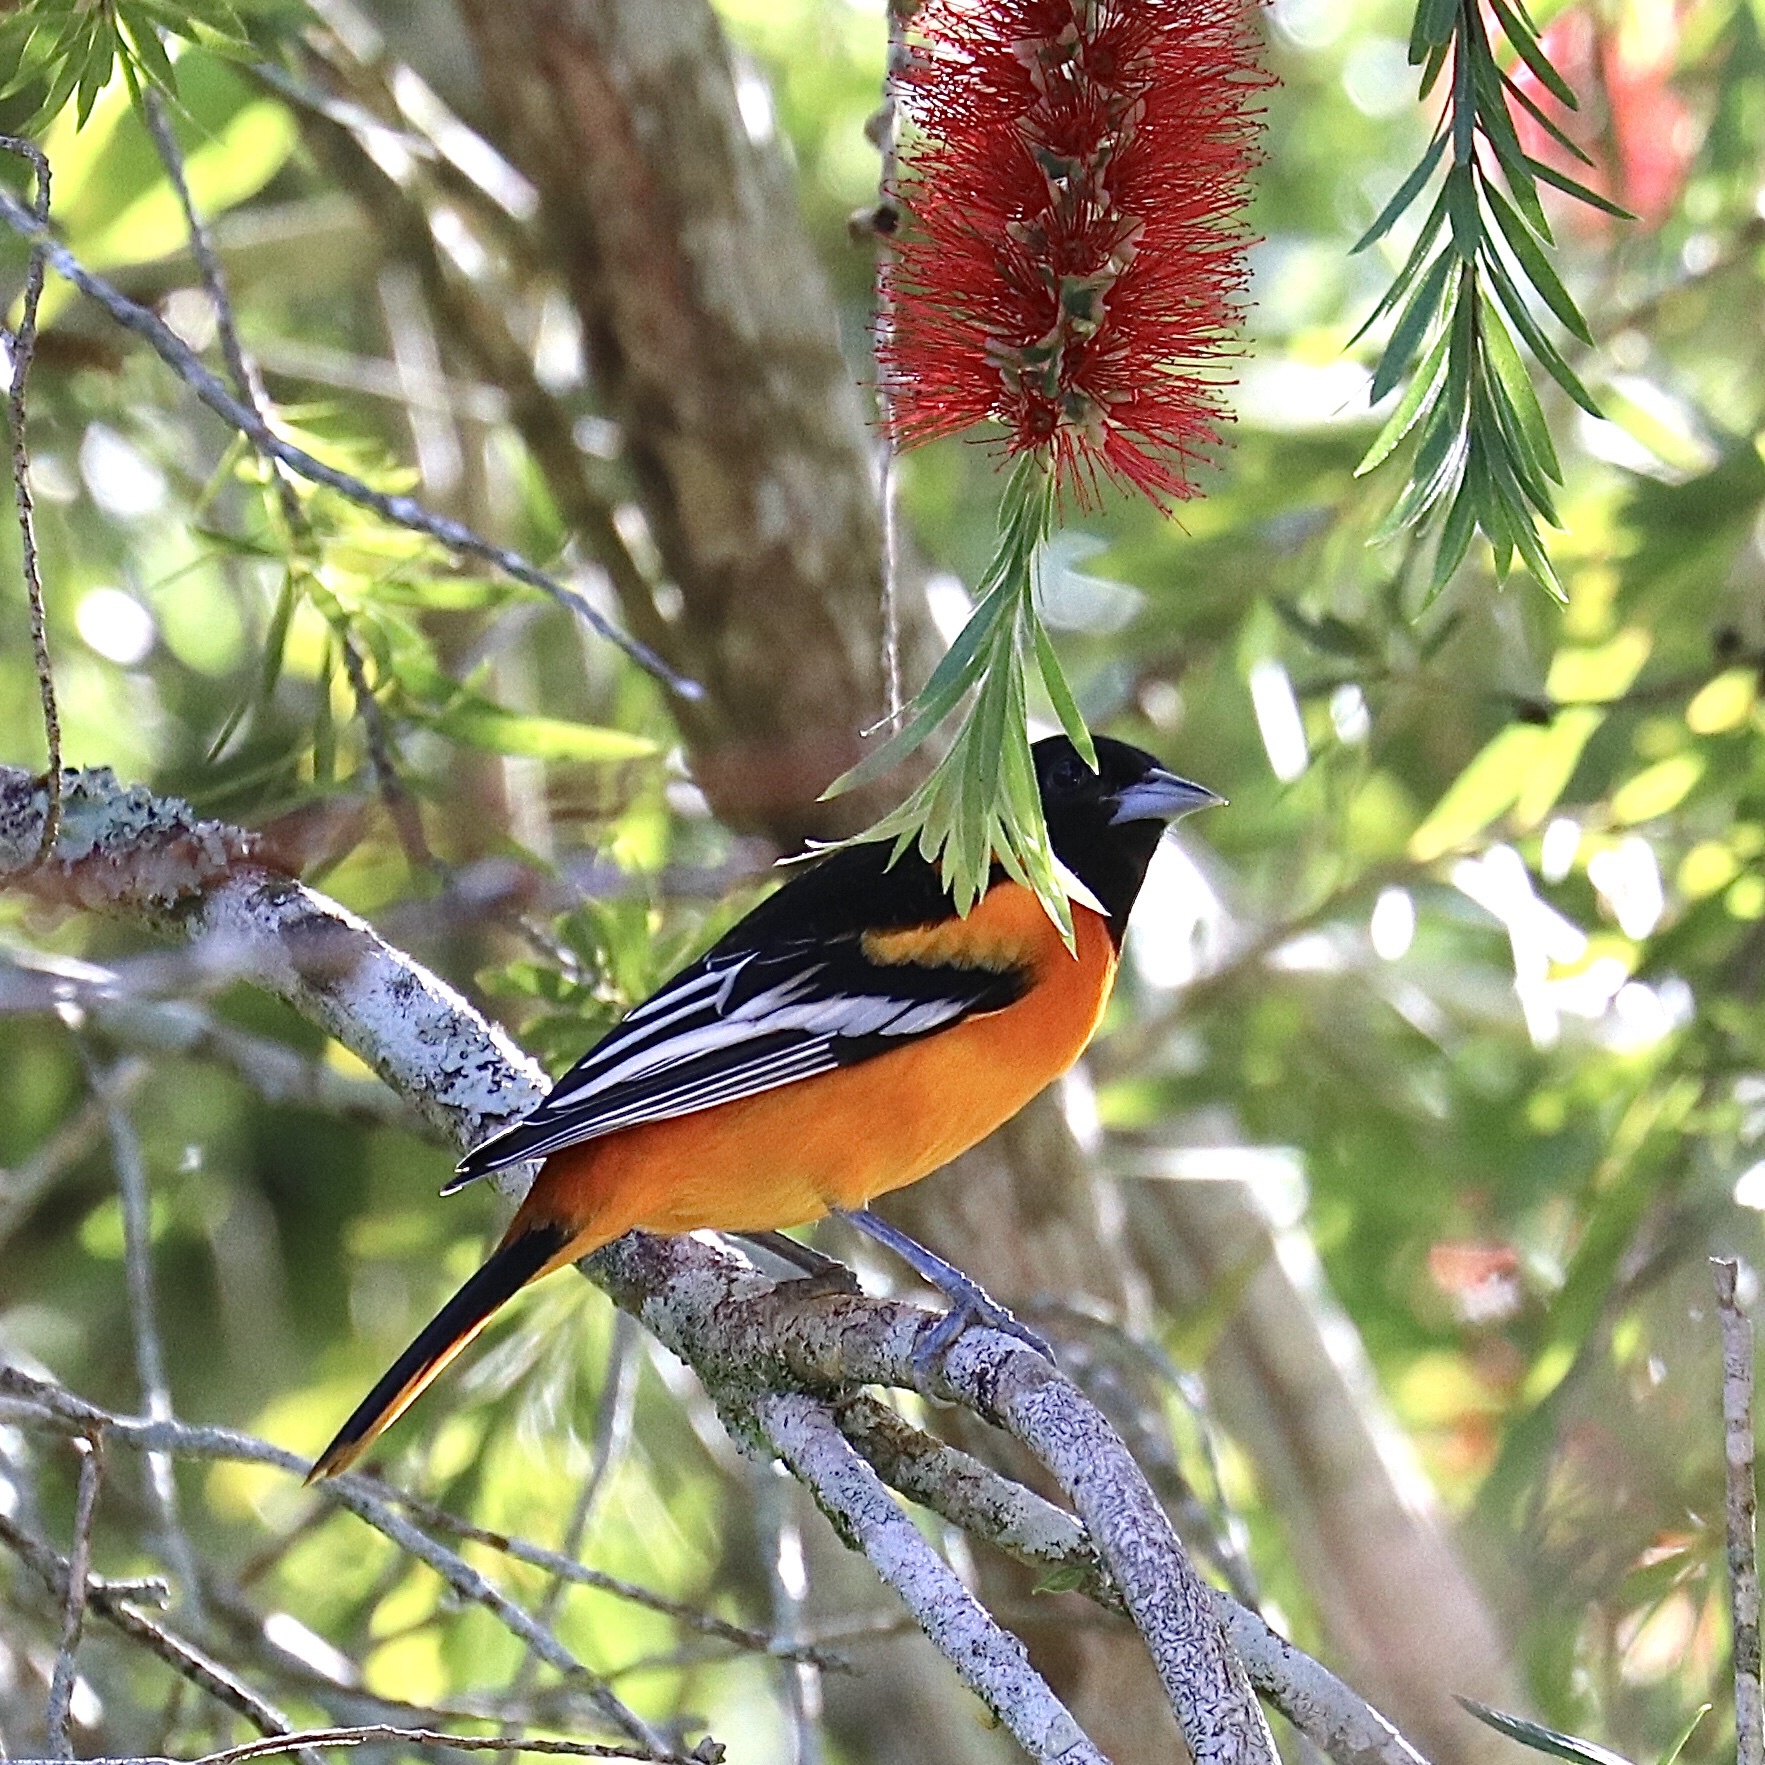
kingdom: Animalia
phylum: Chordata
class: Aves
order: Passeriformes
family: Icteridae
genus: Icterus
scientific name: Icterus galbula
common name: Baltimore oriole
